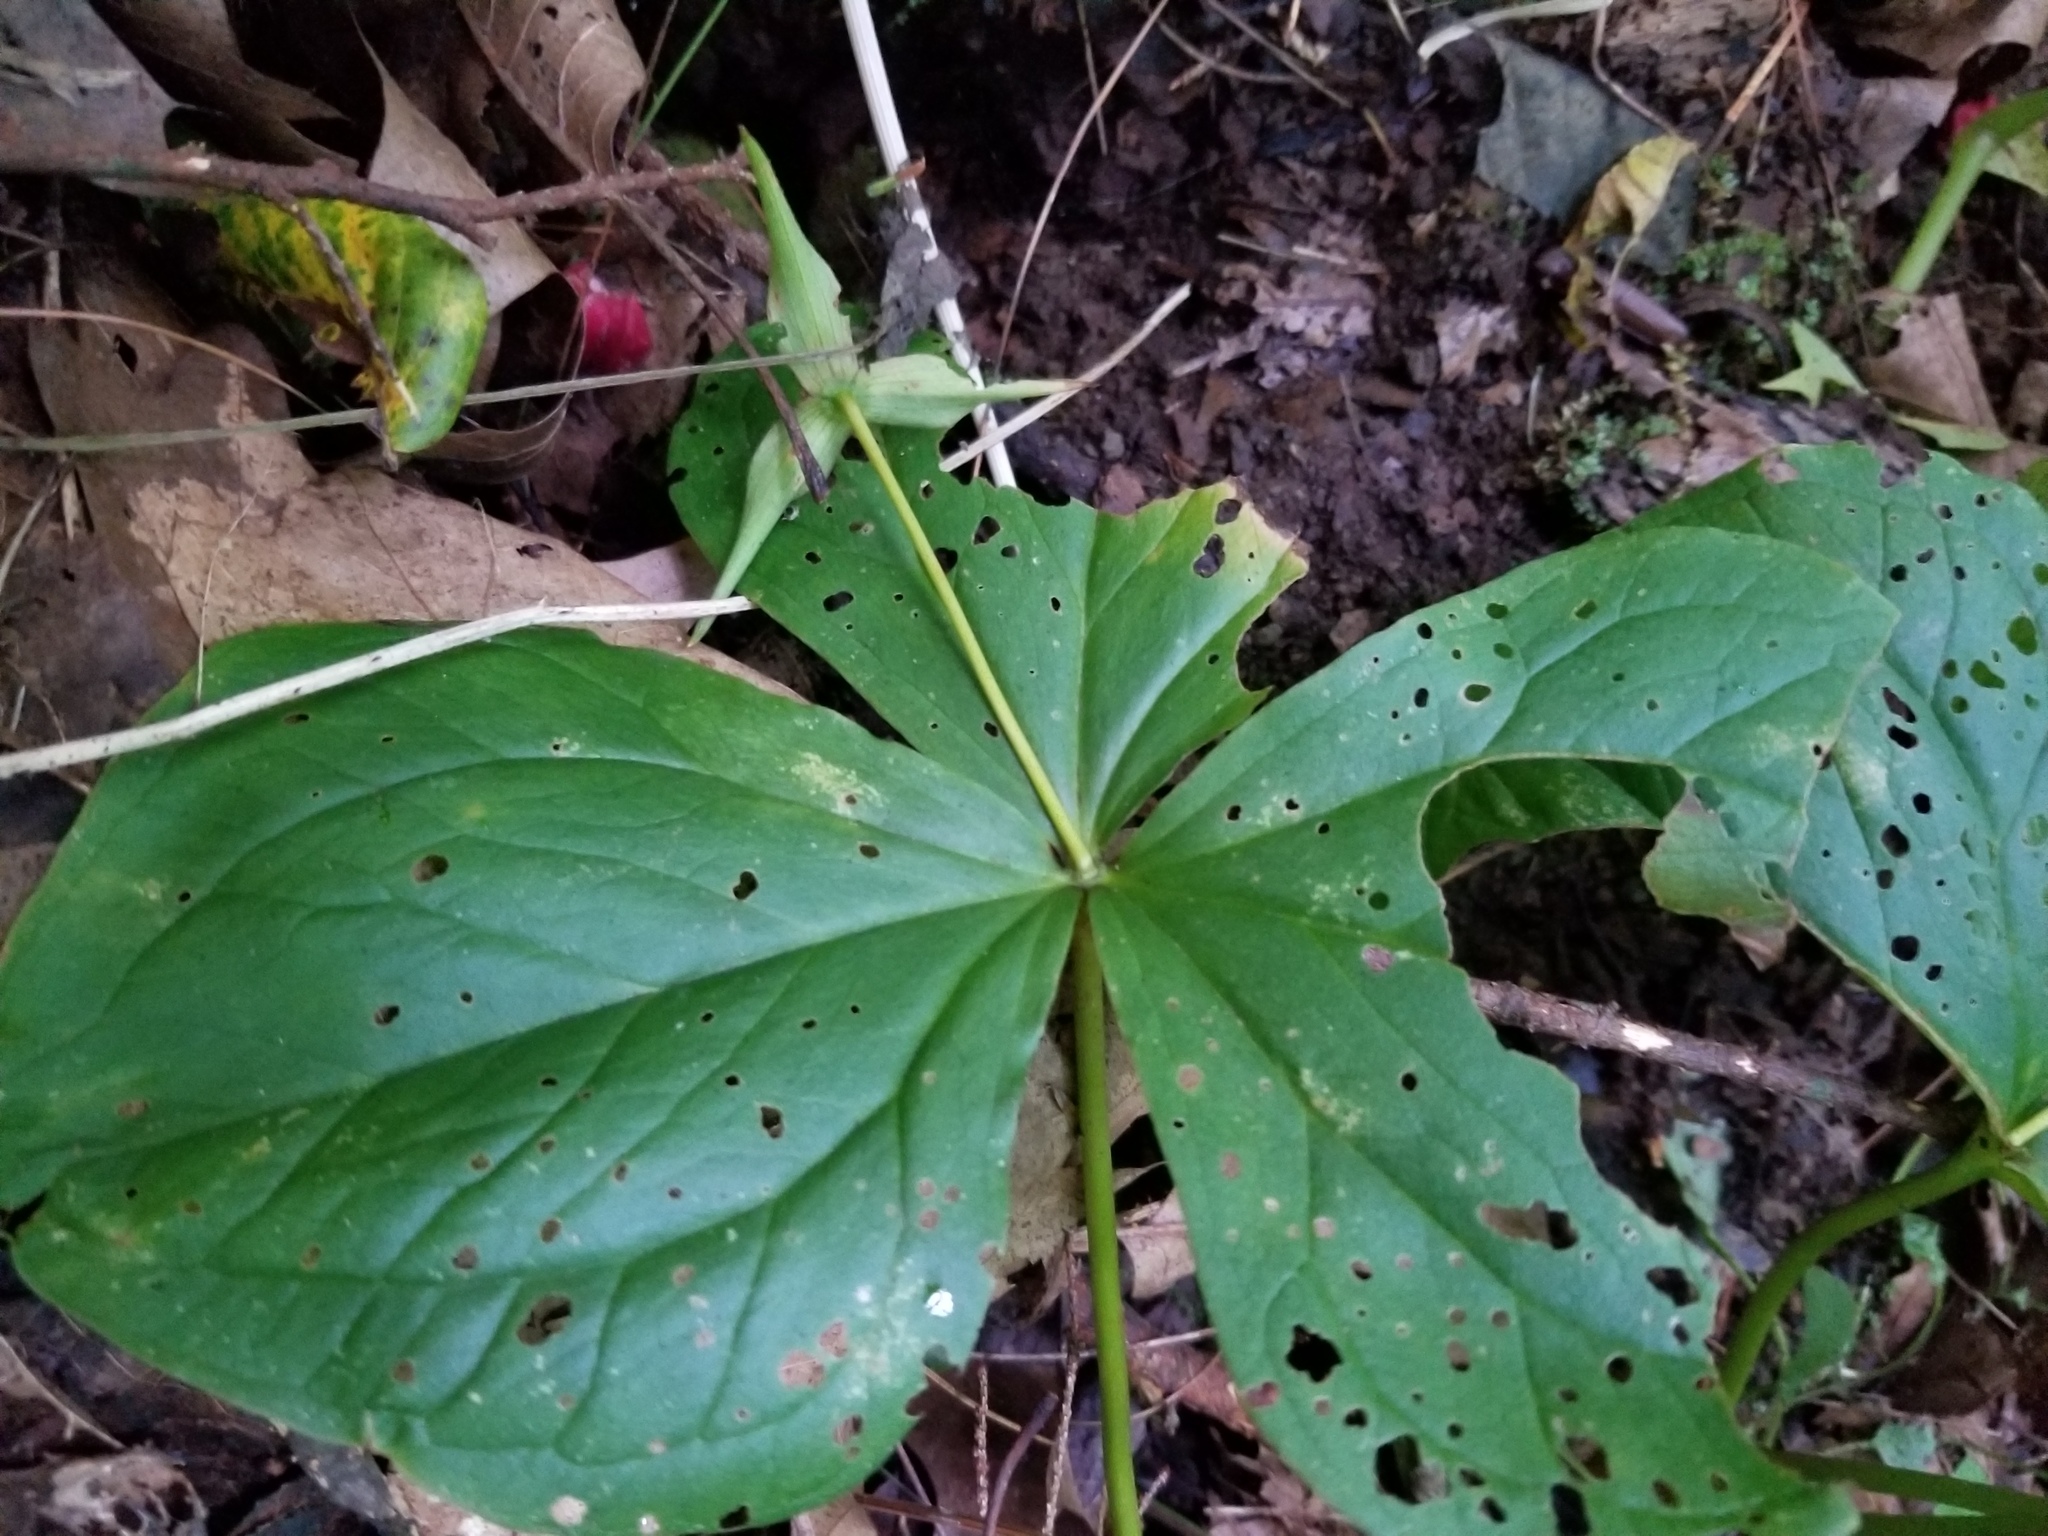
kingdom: Plantae
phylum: Tracheophyta
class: Liliopsida
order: Liliales
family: Melanthiaceae
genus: Trillium
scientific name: Trillium erectum
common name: Purple trillium
